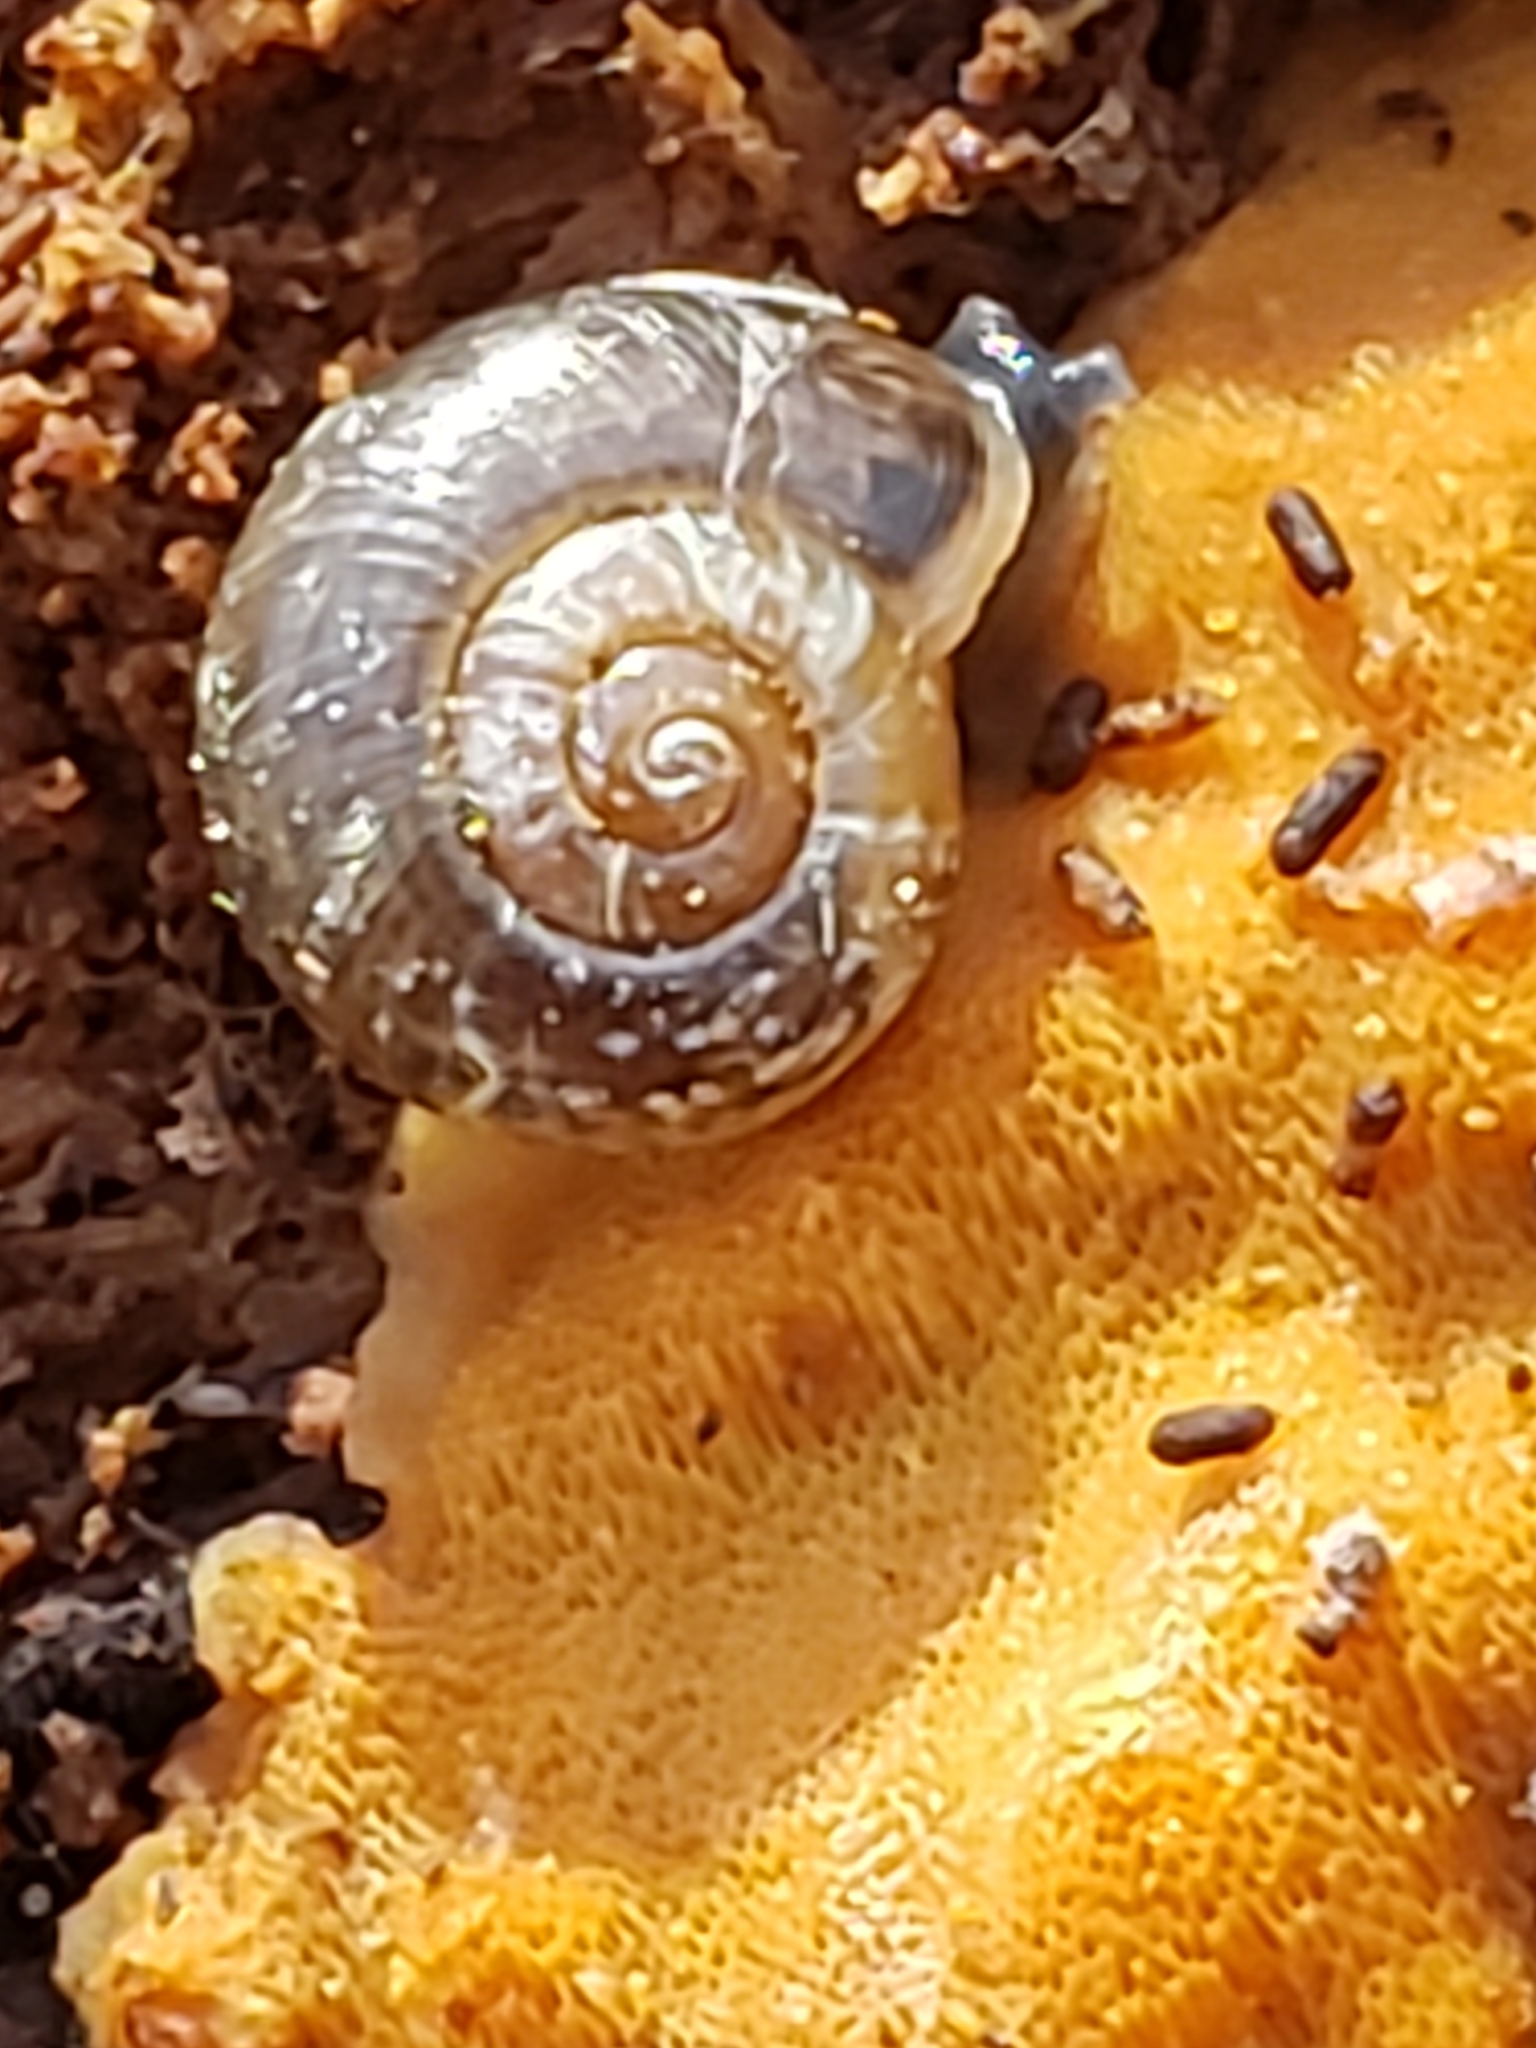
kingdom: Animalia
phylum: Mollusca
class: Gastropoda
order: Stylommatophora
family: Haplotrematidae
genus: Haplotrema
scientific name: Haplotrema concavum
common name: Gray-foot lancetooth
